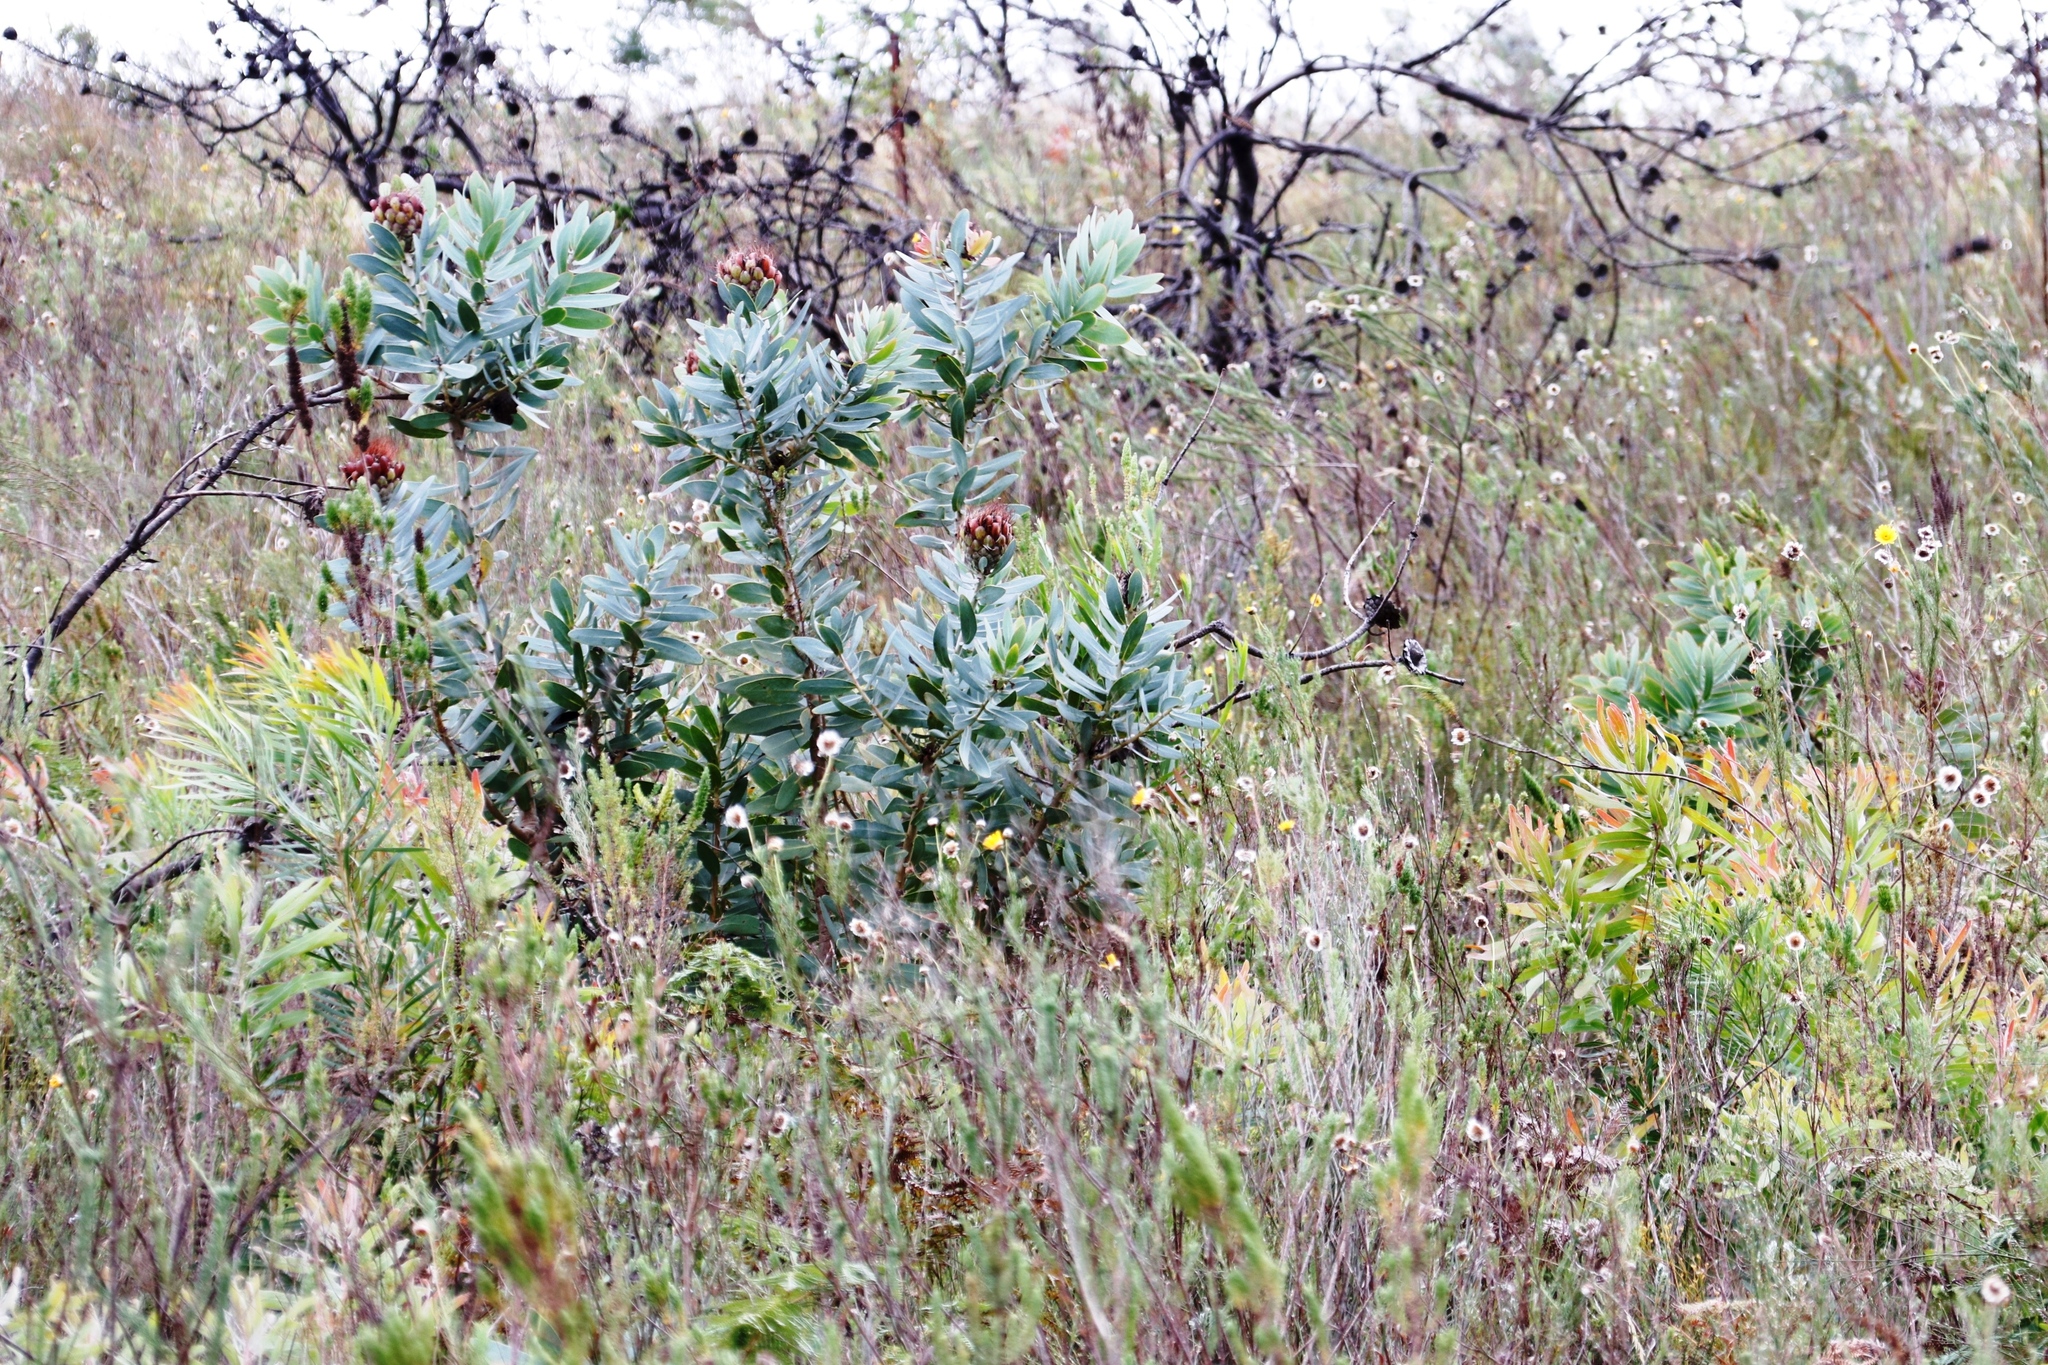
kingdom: Plantae
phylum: Tracheophyta
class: Magnoliopsida
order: Proteales
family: Proteaceae
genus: Protea
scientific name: Protea nitida
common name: Tree protea
